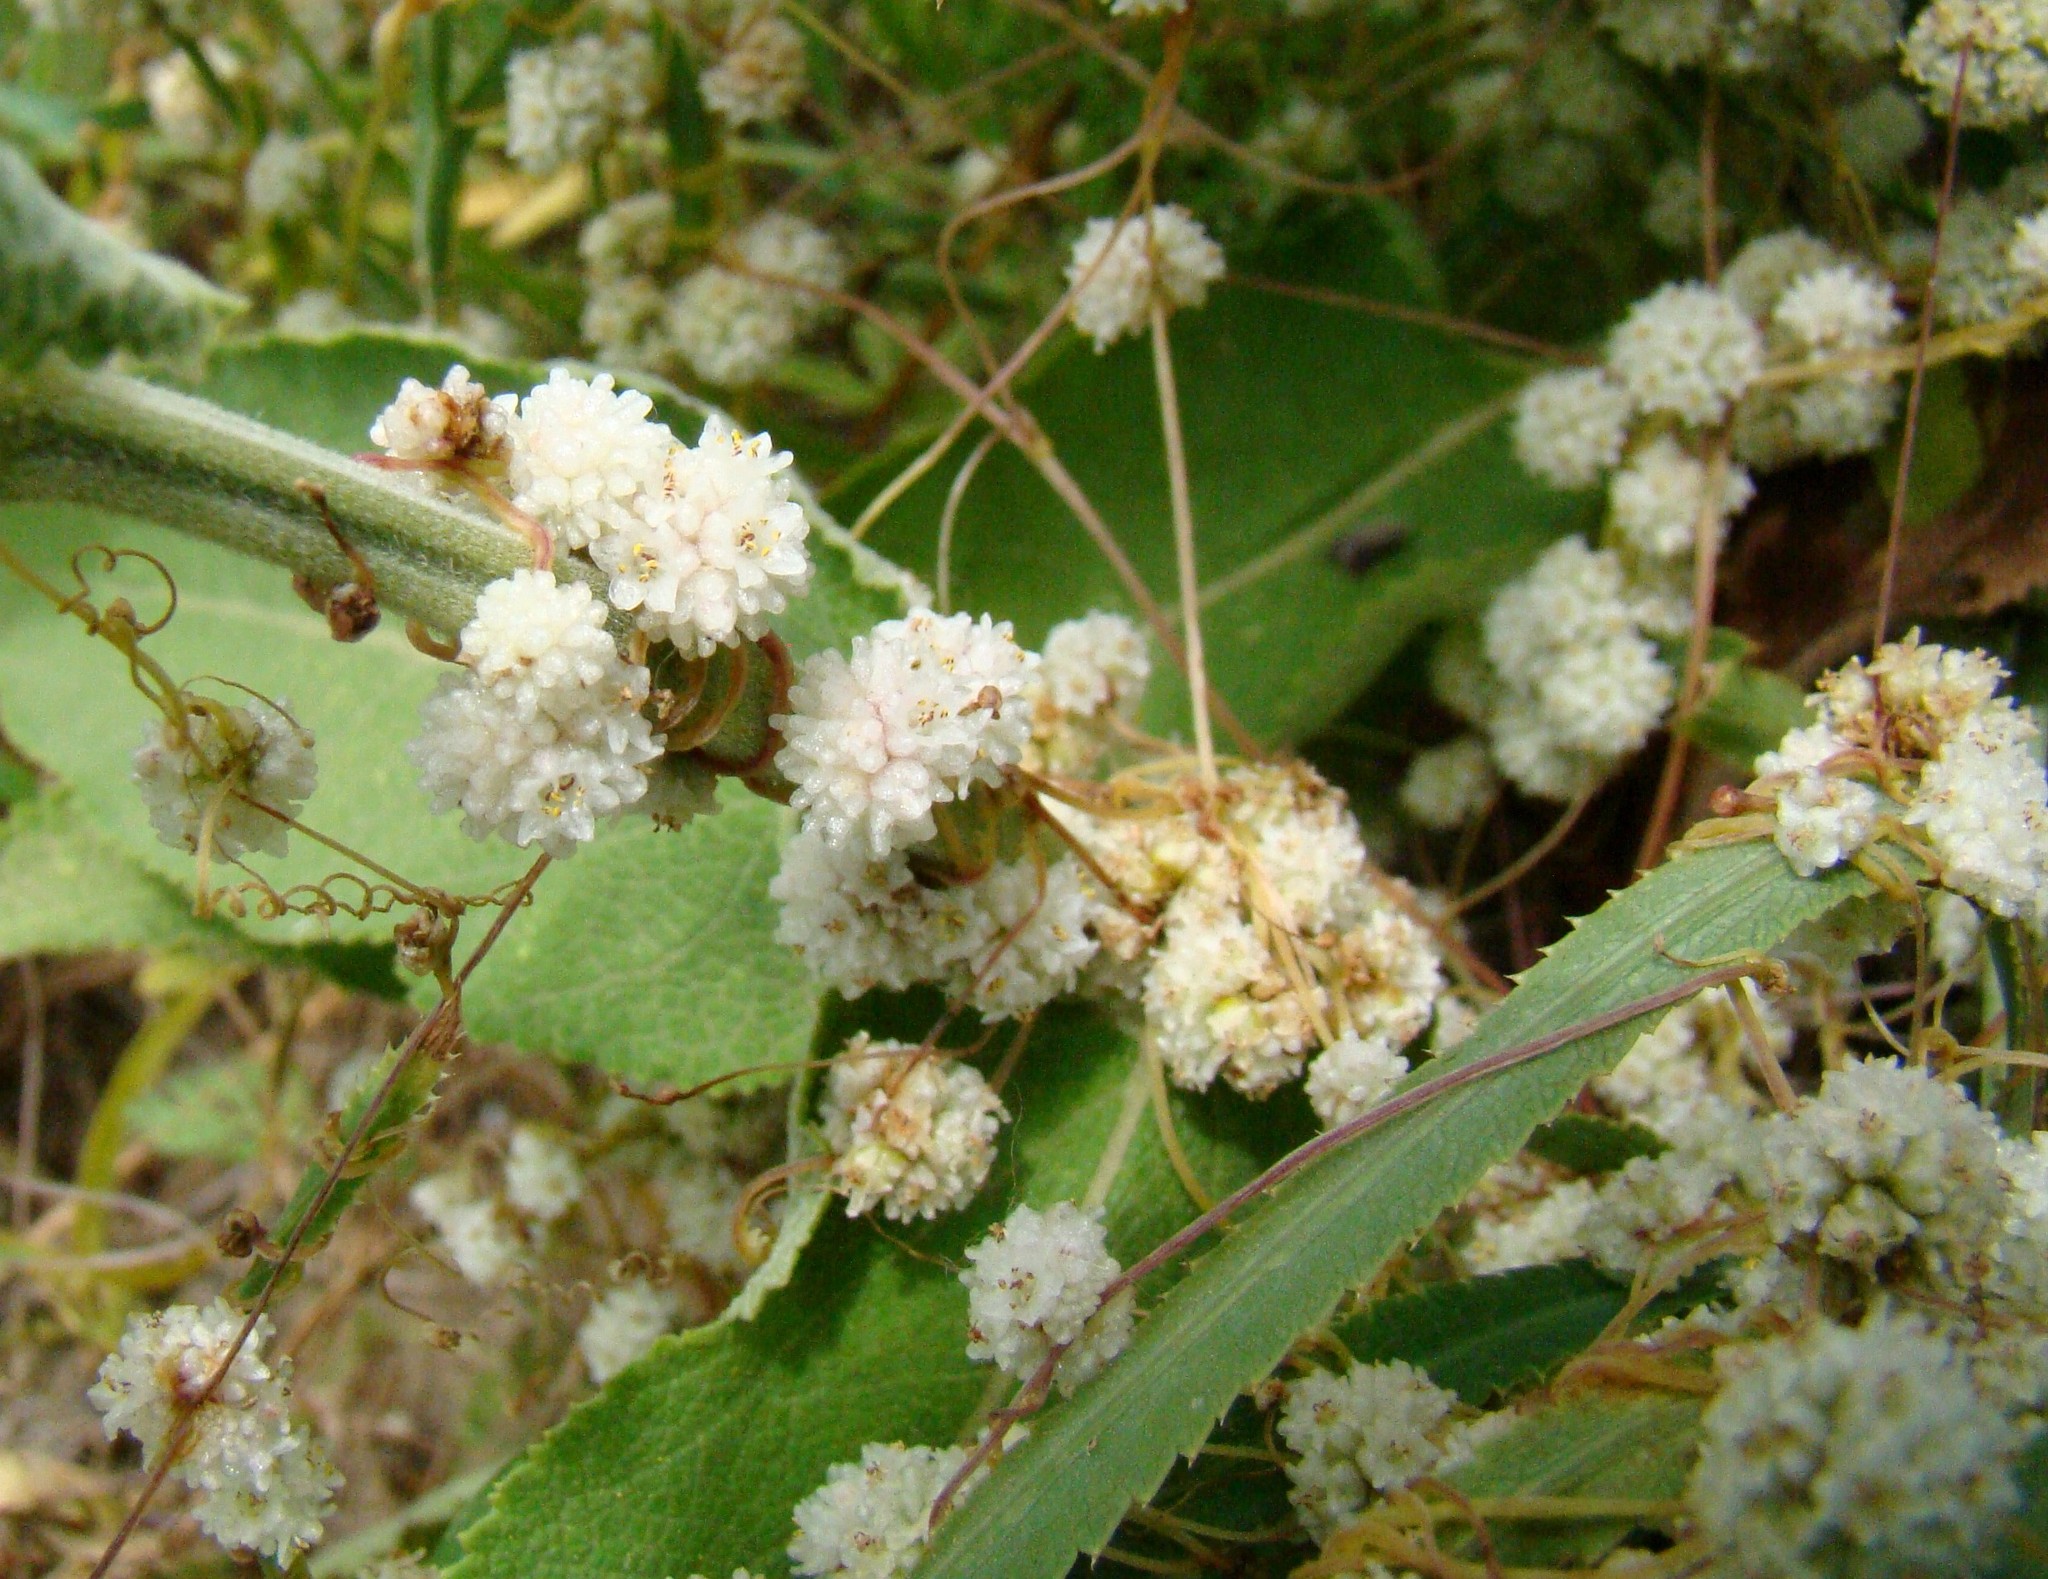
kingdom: Plantae
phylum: Tracheophyta
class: Magnoliopsida
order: Solanales
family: Convolvulaceae
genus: Cuscuta
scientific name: Cuscuta approximata
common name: Alfalfa dodder
